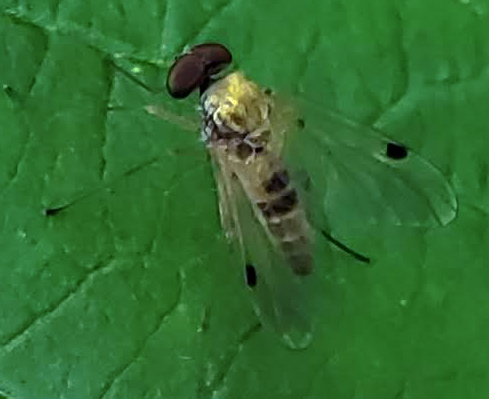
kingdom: Animalia
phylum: Arthropoda
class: Insecta
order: Diptera
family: Rhagionidae
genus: Chrysopilus
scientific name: Chrysopilus modestus
